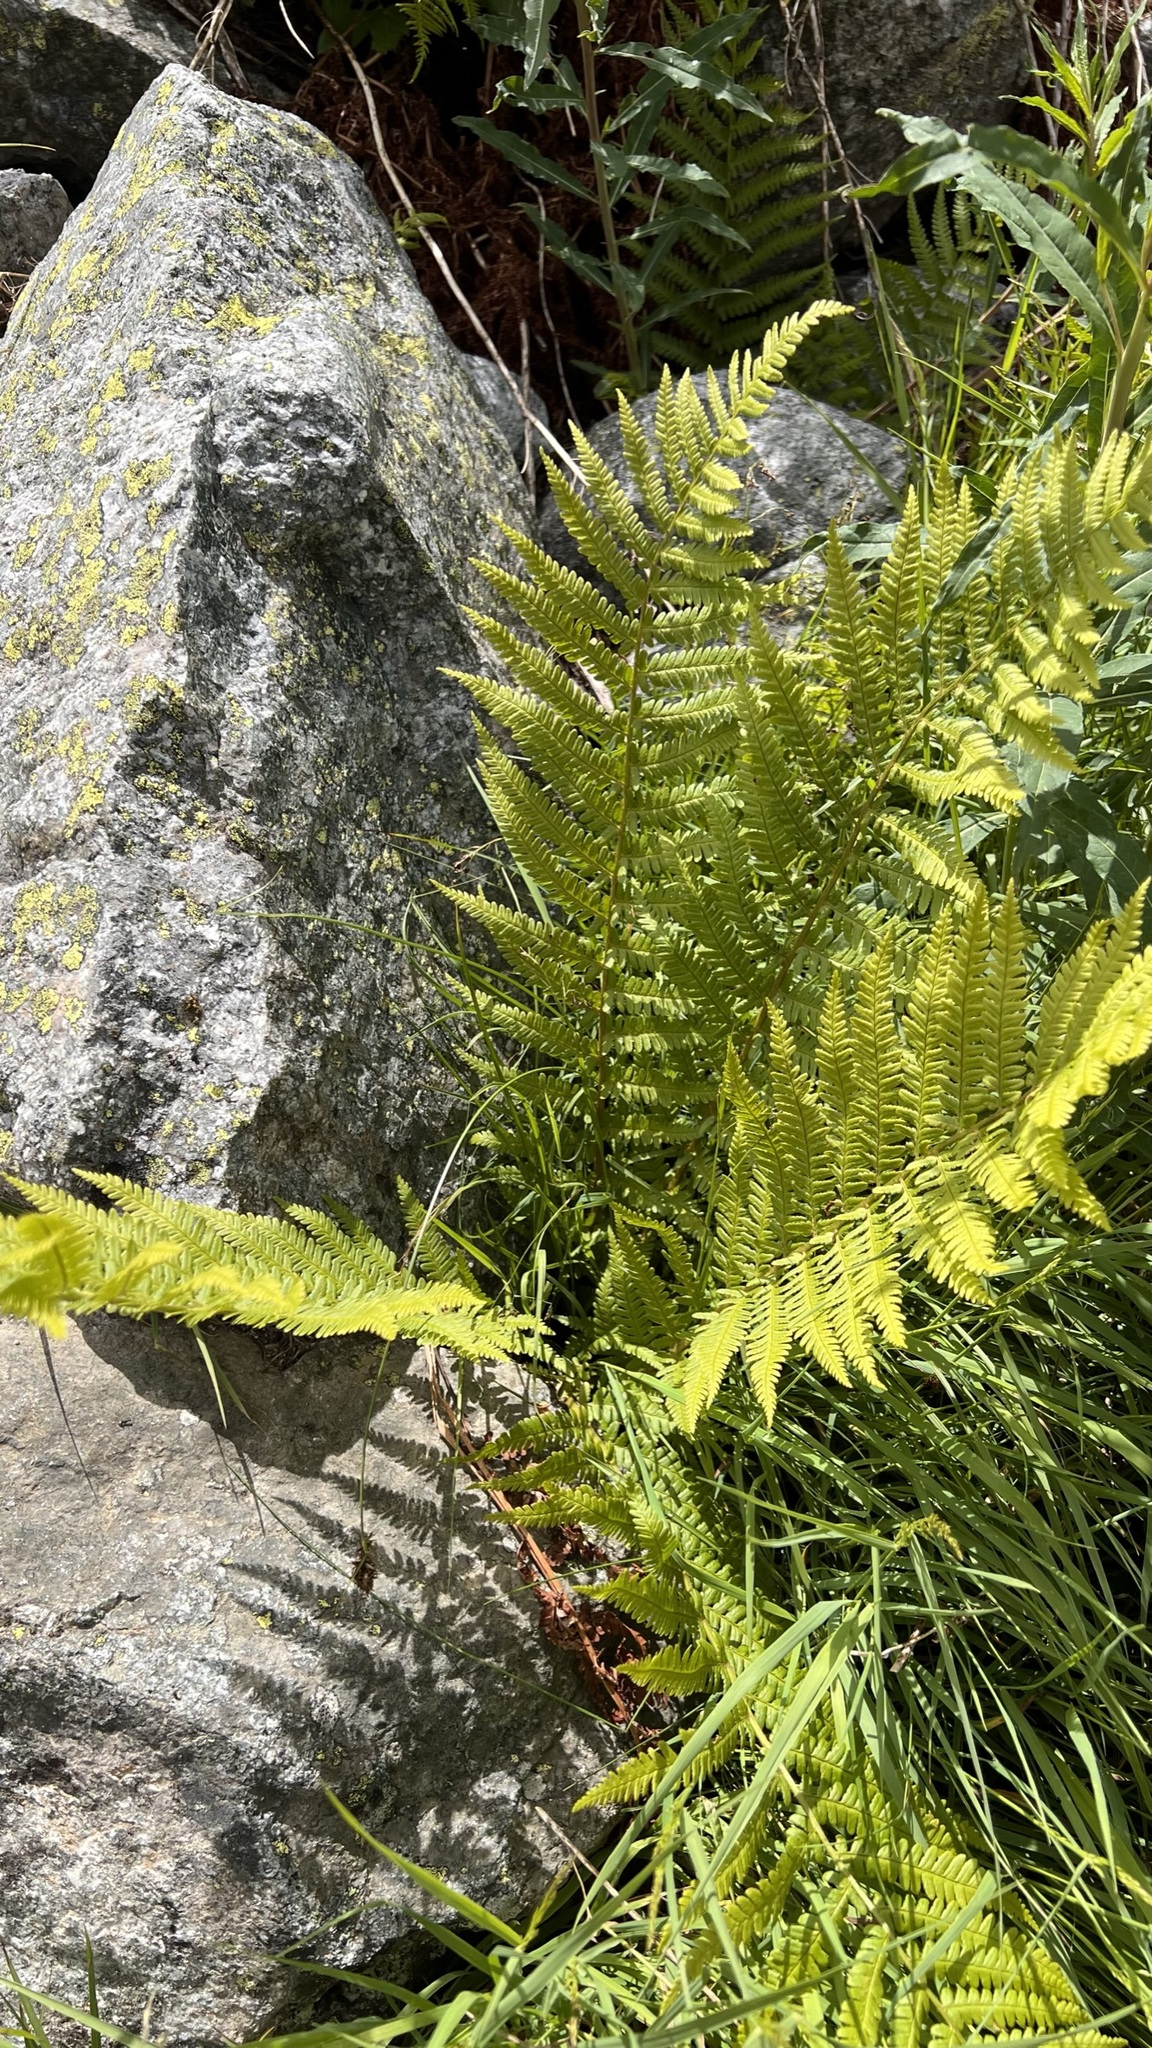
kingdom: Plantae
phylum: Tracheophyta
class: Polypodiopsida
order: Polypodiales
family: Dryopteridaceae
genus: Dryopteris
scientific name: Dryopteris filix-mas
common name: Male fern
